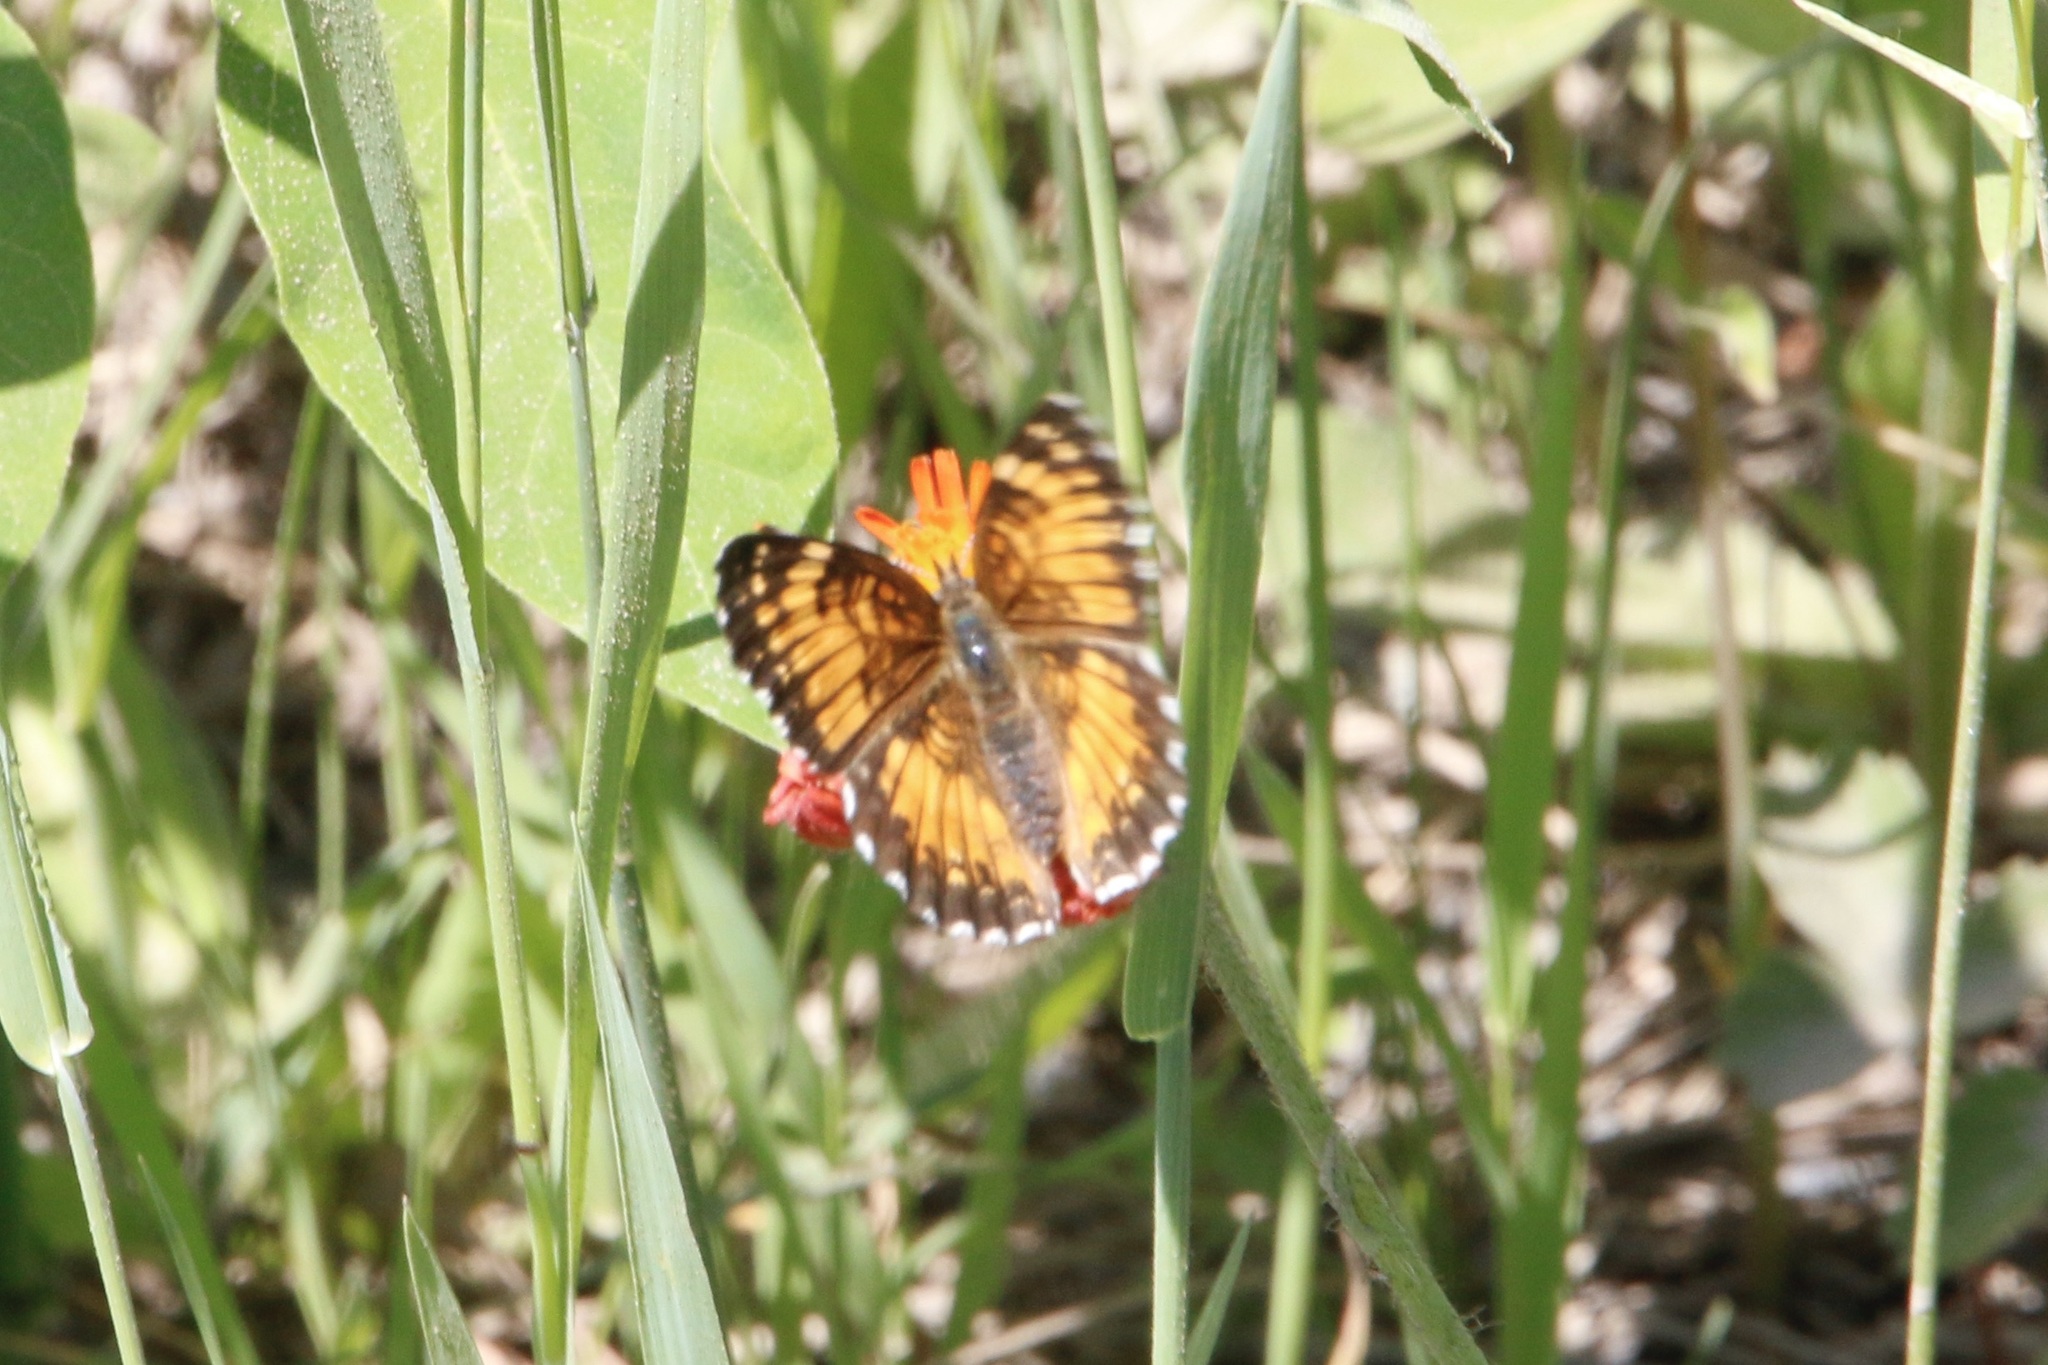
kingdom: Animalia
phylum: Arthropoda
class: Insecta
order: Lepidoptera
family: Nymphalidae
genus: Chlosyne
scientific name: Chlosyne harrisii
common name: Harris's checkerspot
